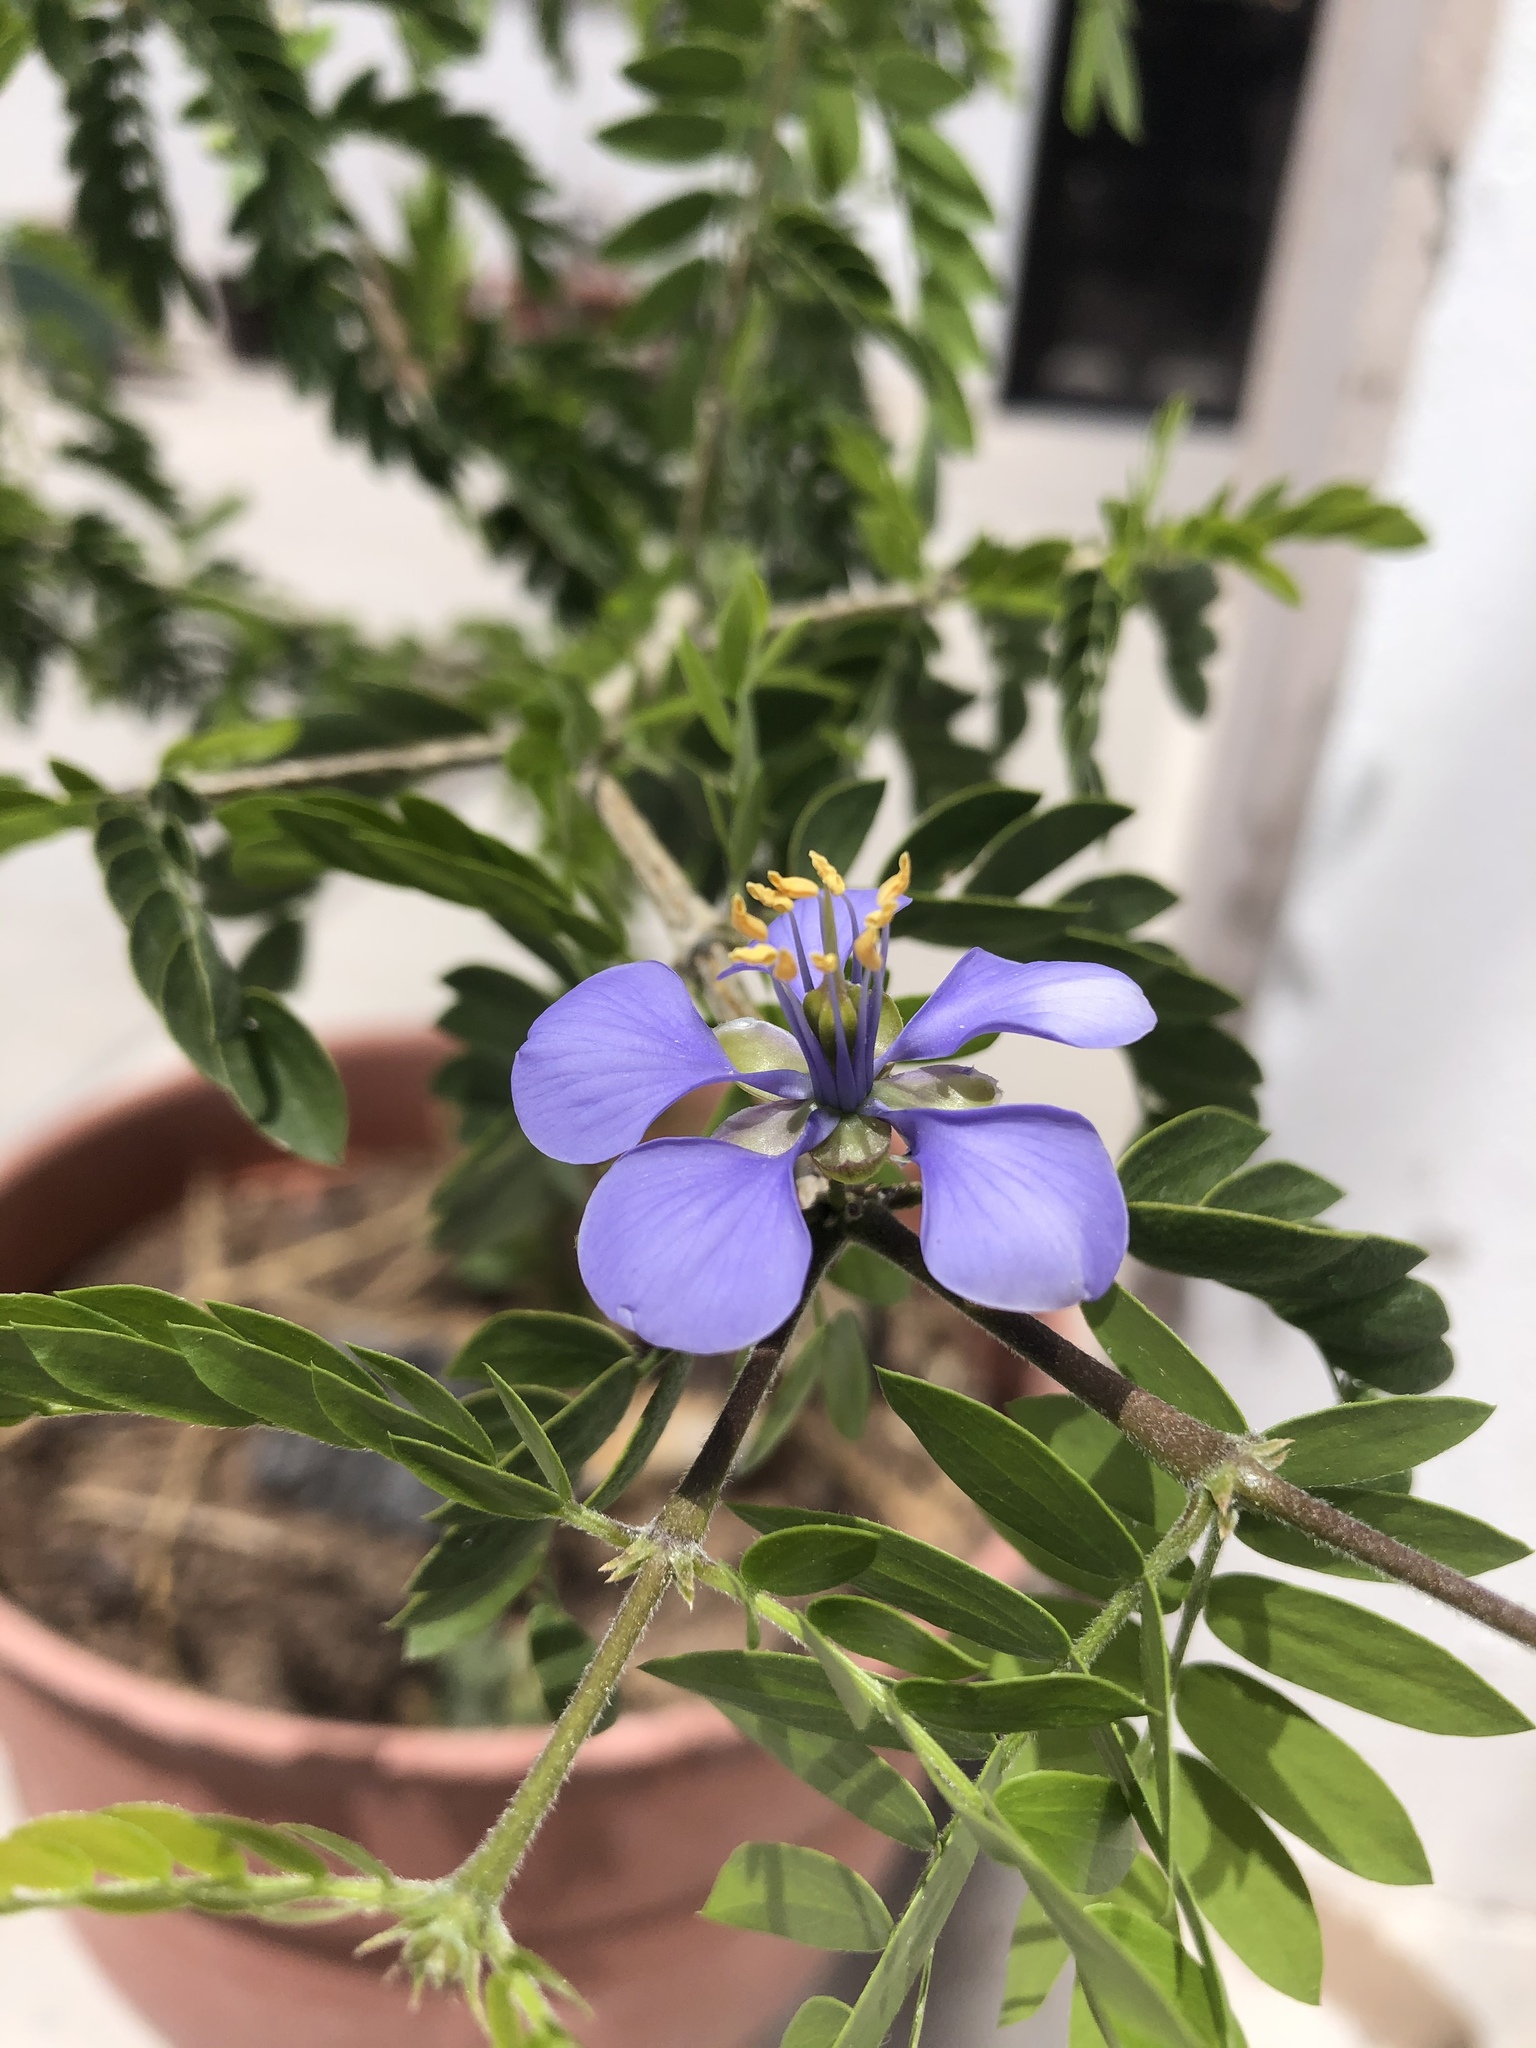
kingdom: Plantae
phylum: Tracheophyta
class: Magnoliopsida
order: Zygophyllales
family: Zygophyllaceae
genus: Guaiacum
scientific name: Guaiacum coulteri
